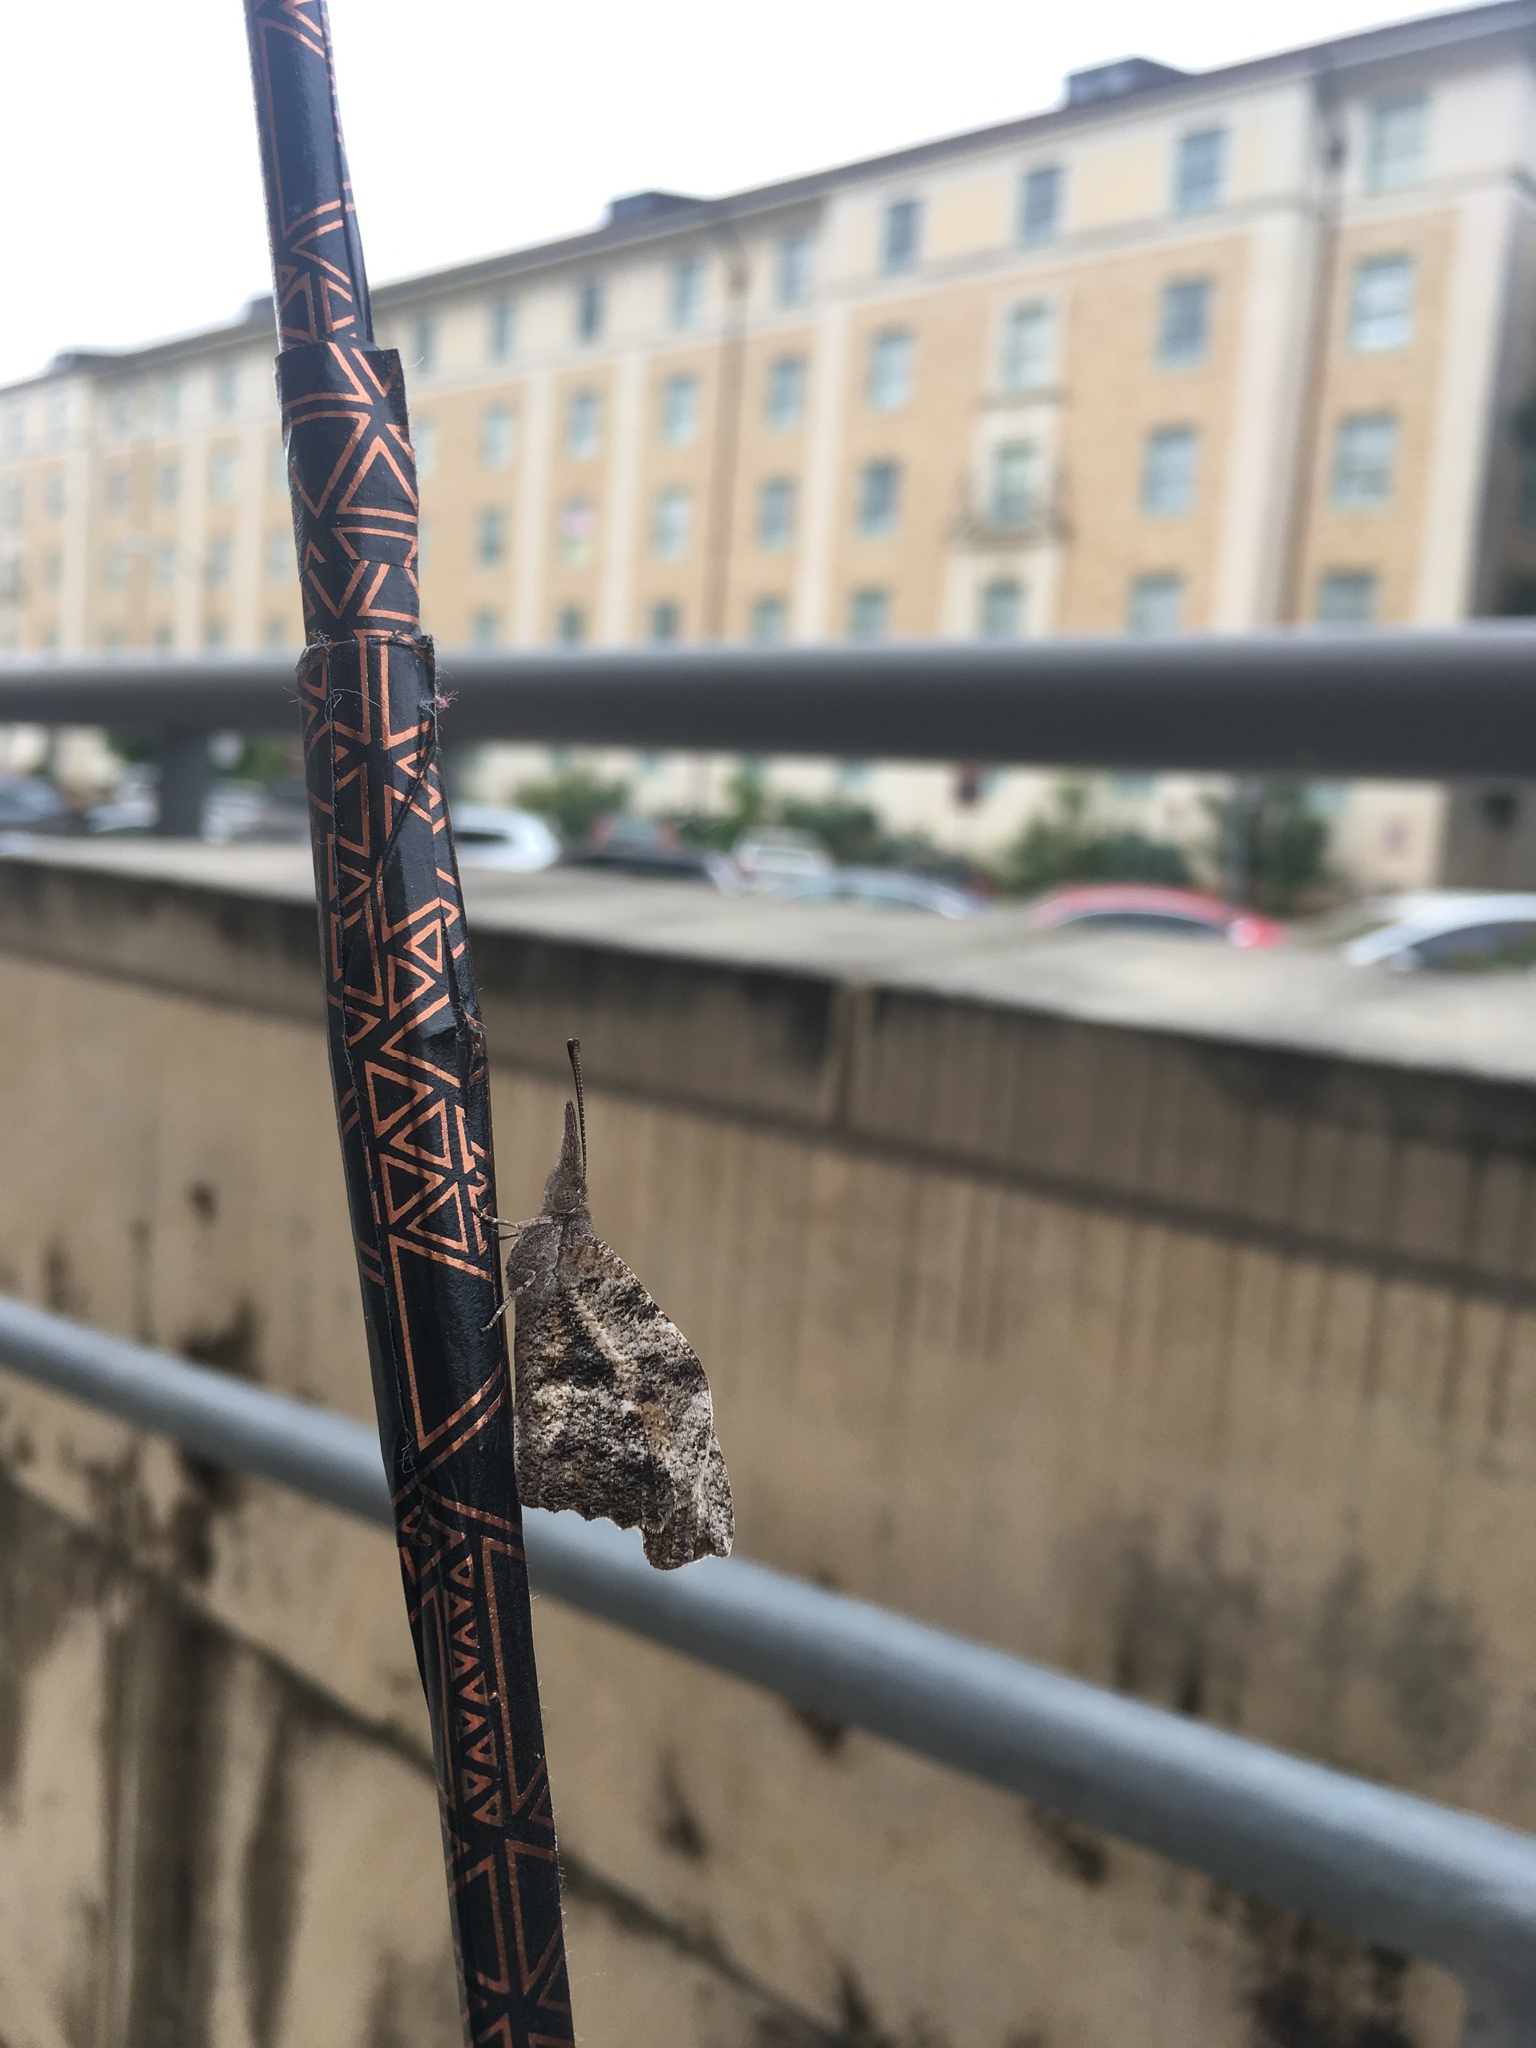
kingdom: Animalia
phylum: Arthropoda
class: Insecta
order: Lepidoptera
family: Nymphalidae
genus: Libytheana
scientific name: Libytheana carinenta
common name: American snout
